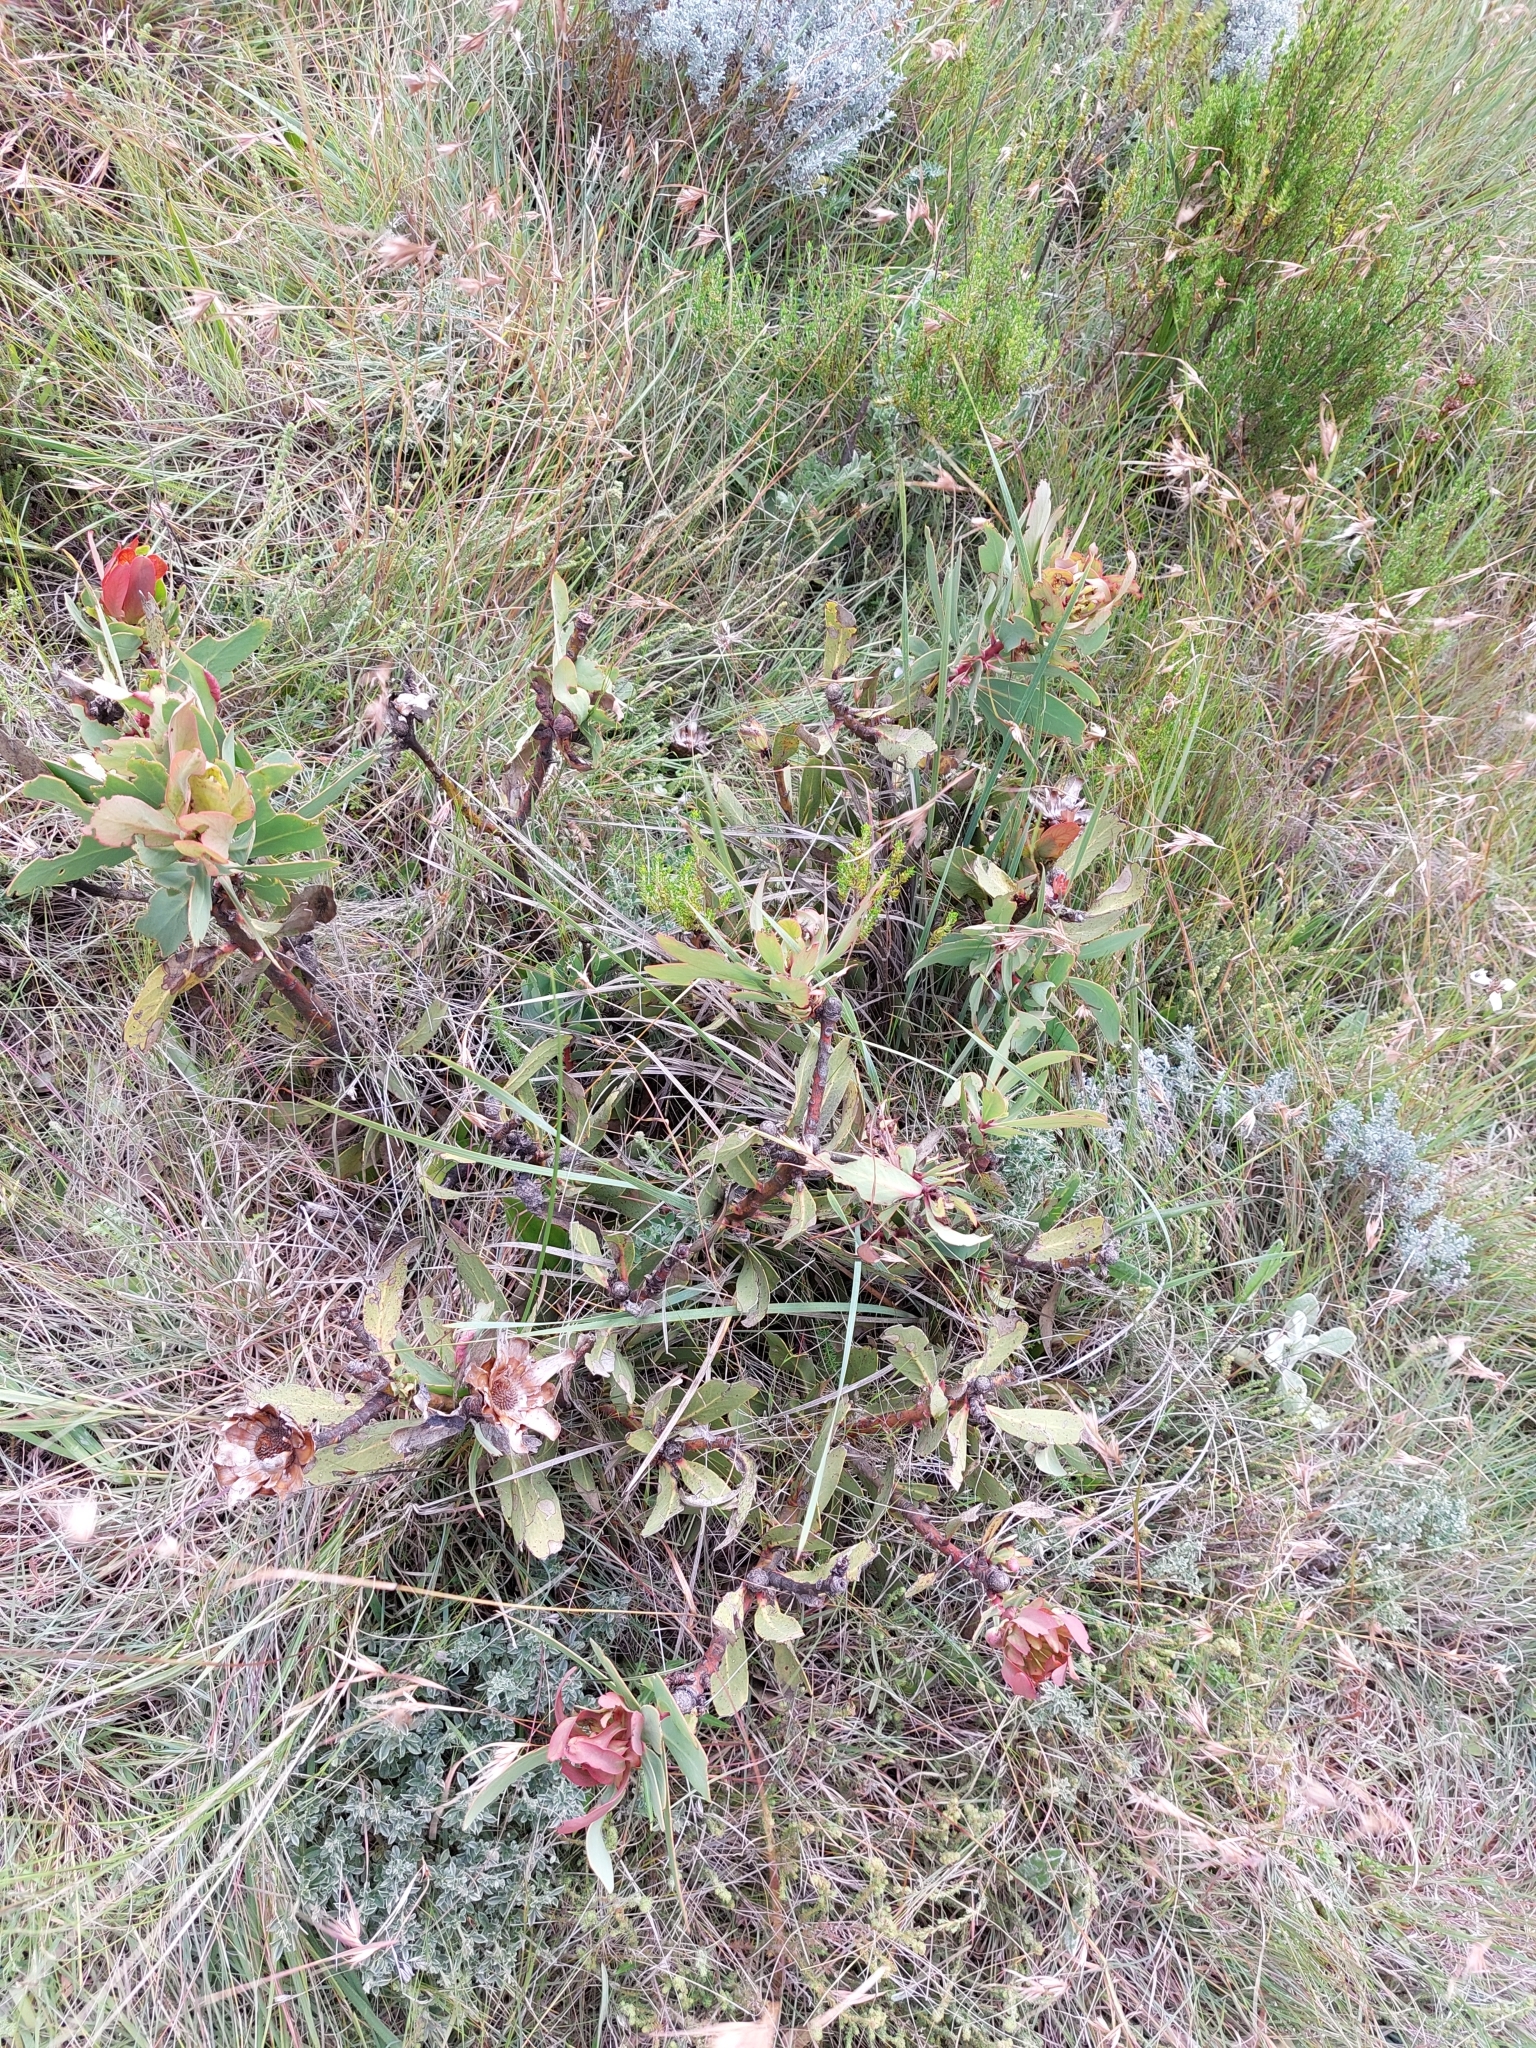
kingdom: Plantae
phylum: Tracheophyta
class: Magnoliopsida
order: Proteales
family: Proteaceae
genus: Protea
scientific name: Protea dracomontana
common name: Drakensberg dwarf sugarbush
